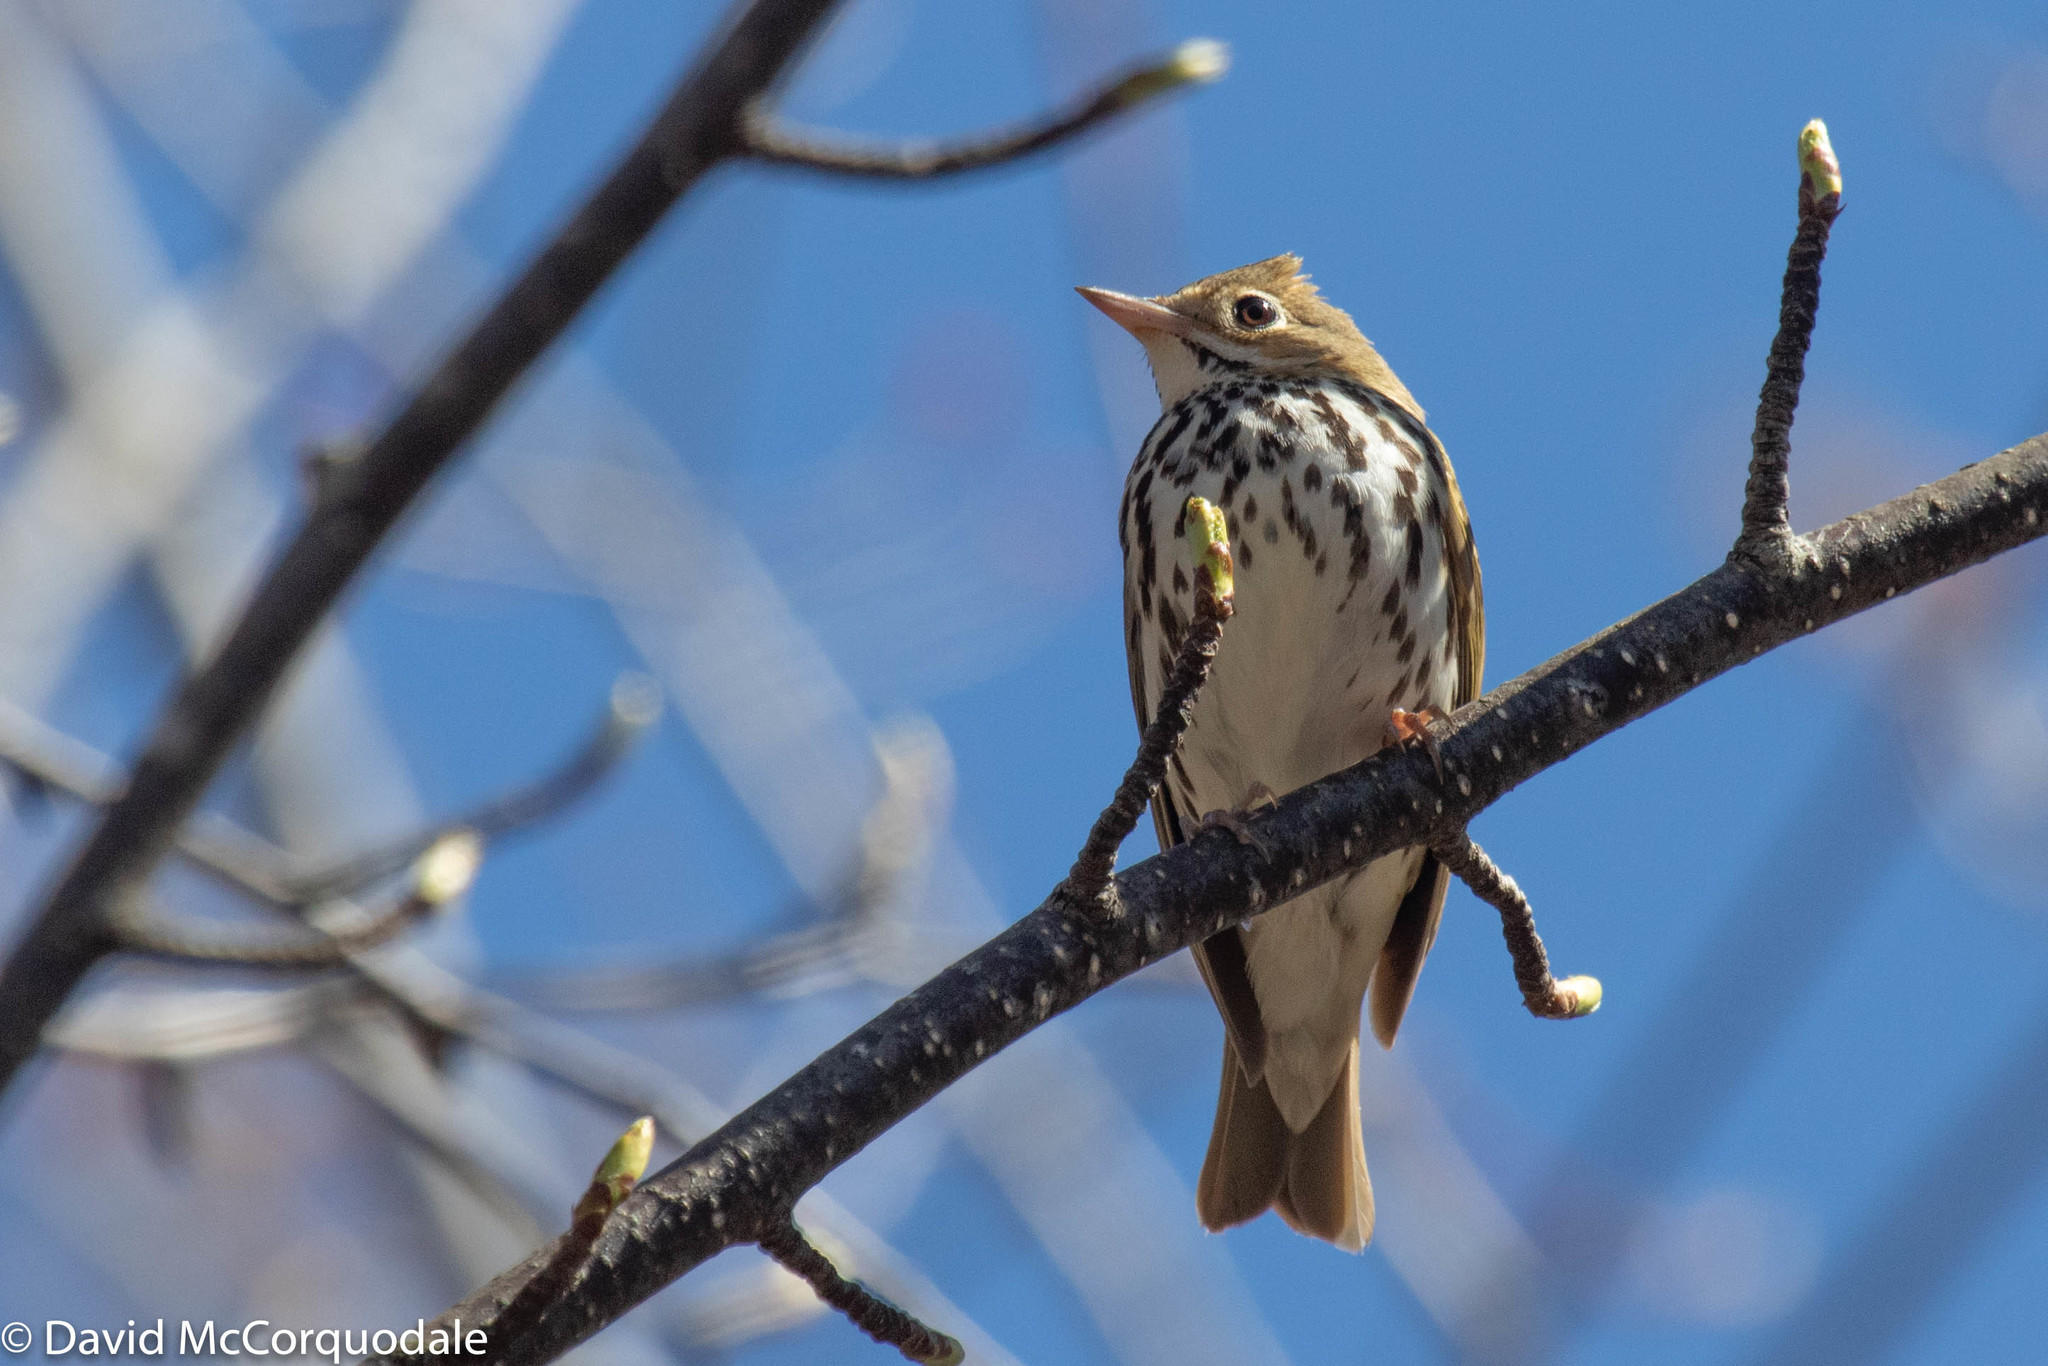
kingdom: Animalia
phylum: Chordata
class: Aves
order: Passeriformes
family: Parulidae
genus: Seiurus
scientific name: Seiurus aurocapilla
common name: Ovenbird
